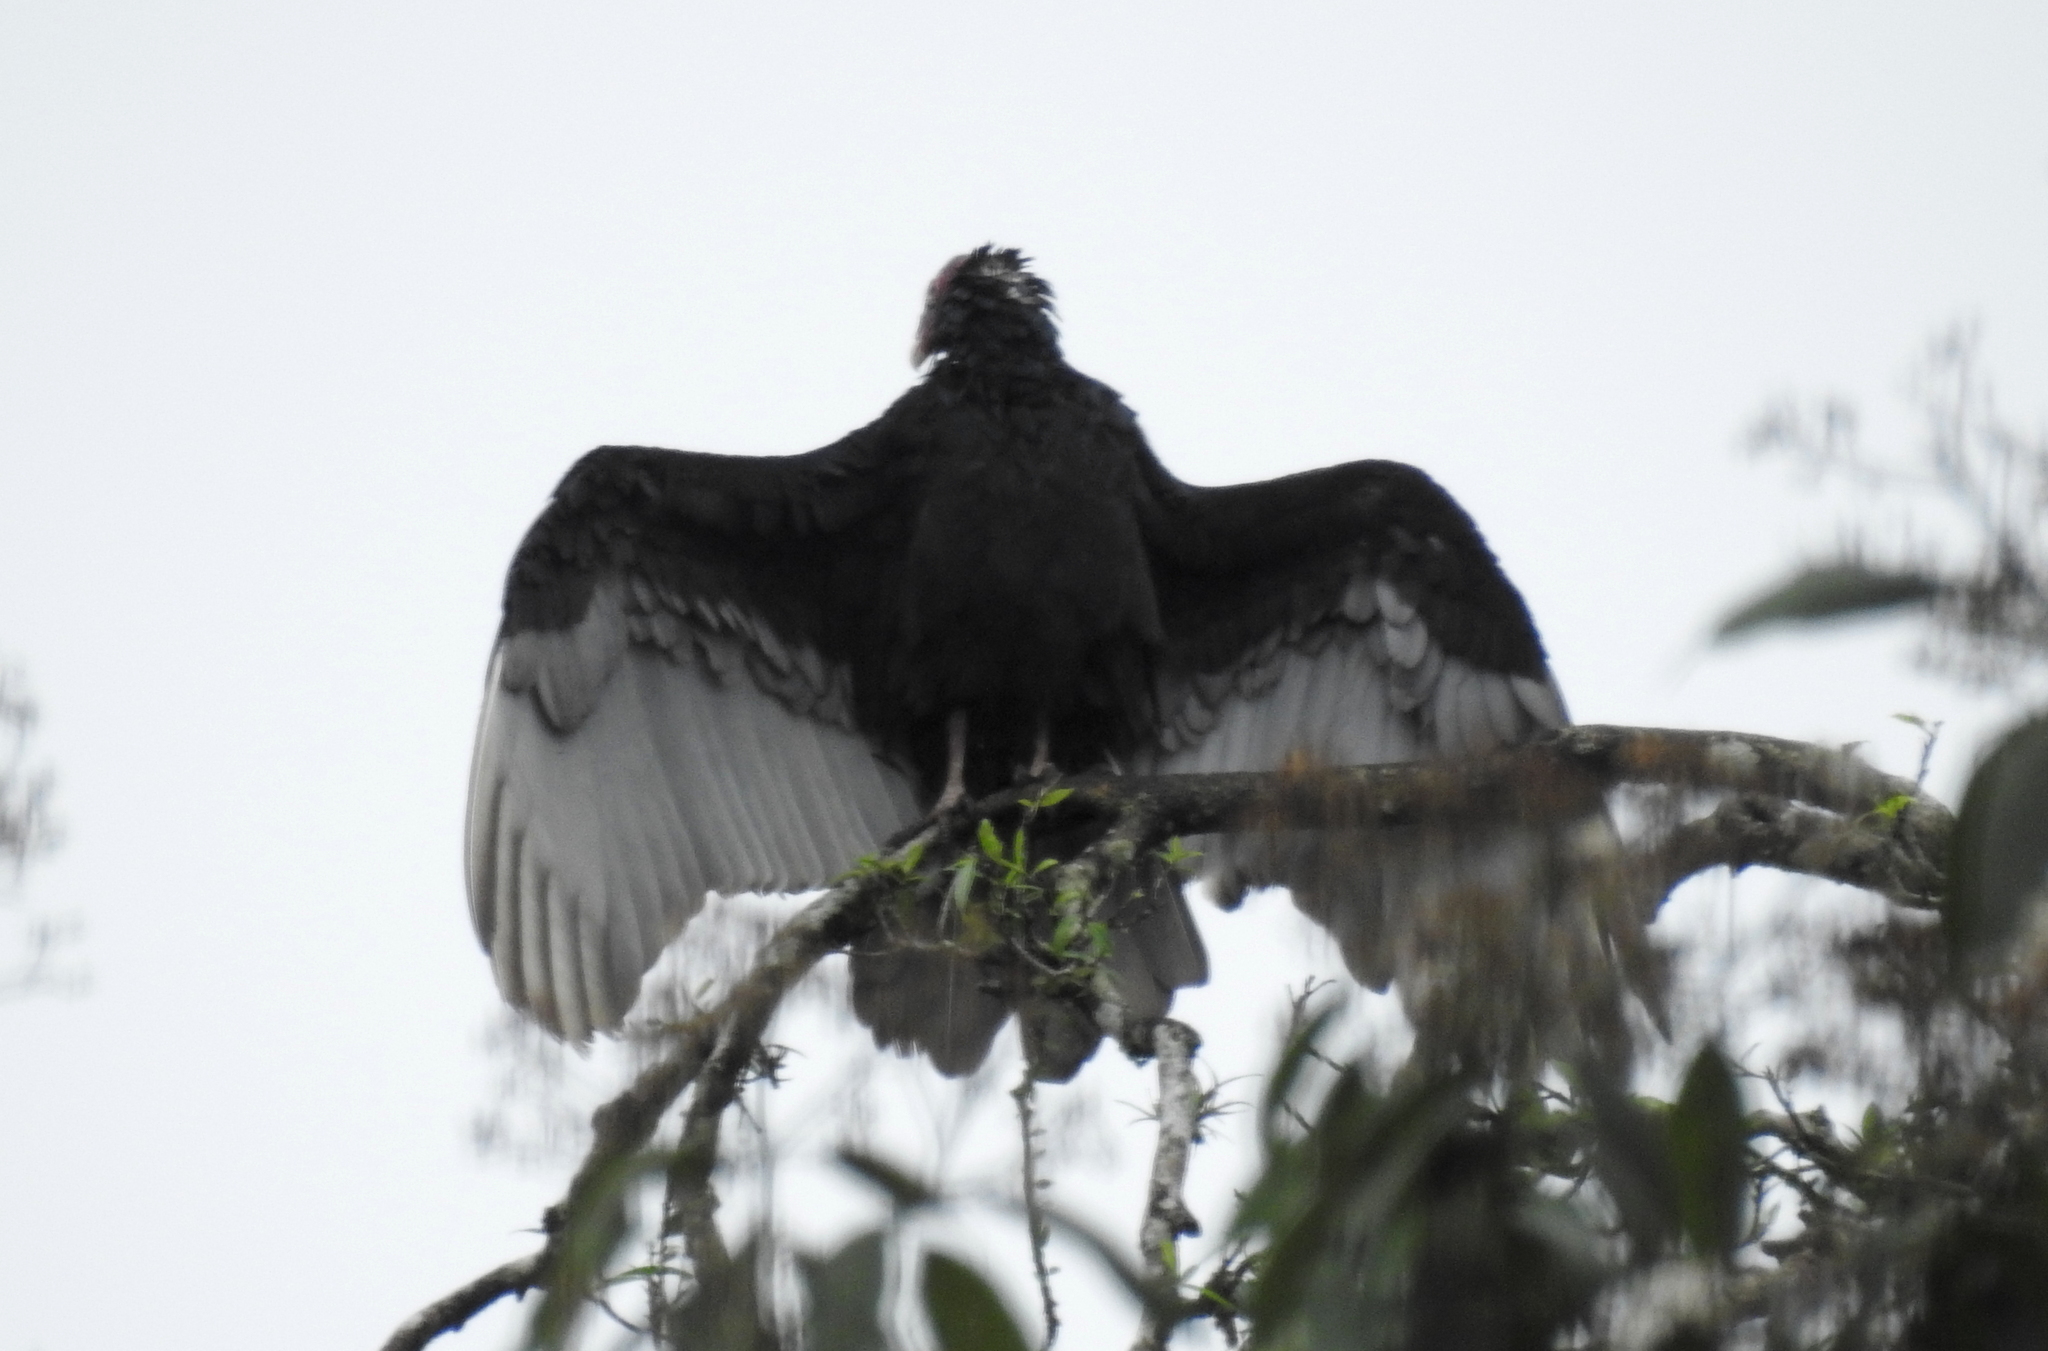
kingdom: Animalia
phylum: Chordata
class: Aves
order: Accipitriformes
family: Cathartidae
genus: Cathartes
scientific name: Cathartes aura
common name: Turkey vulture
